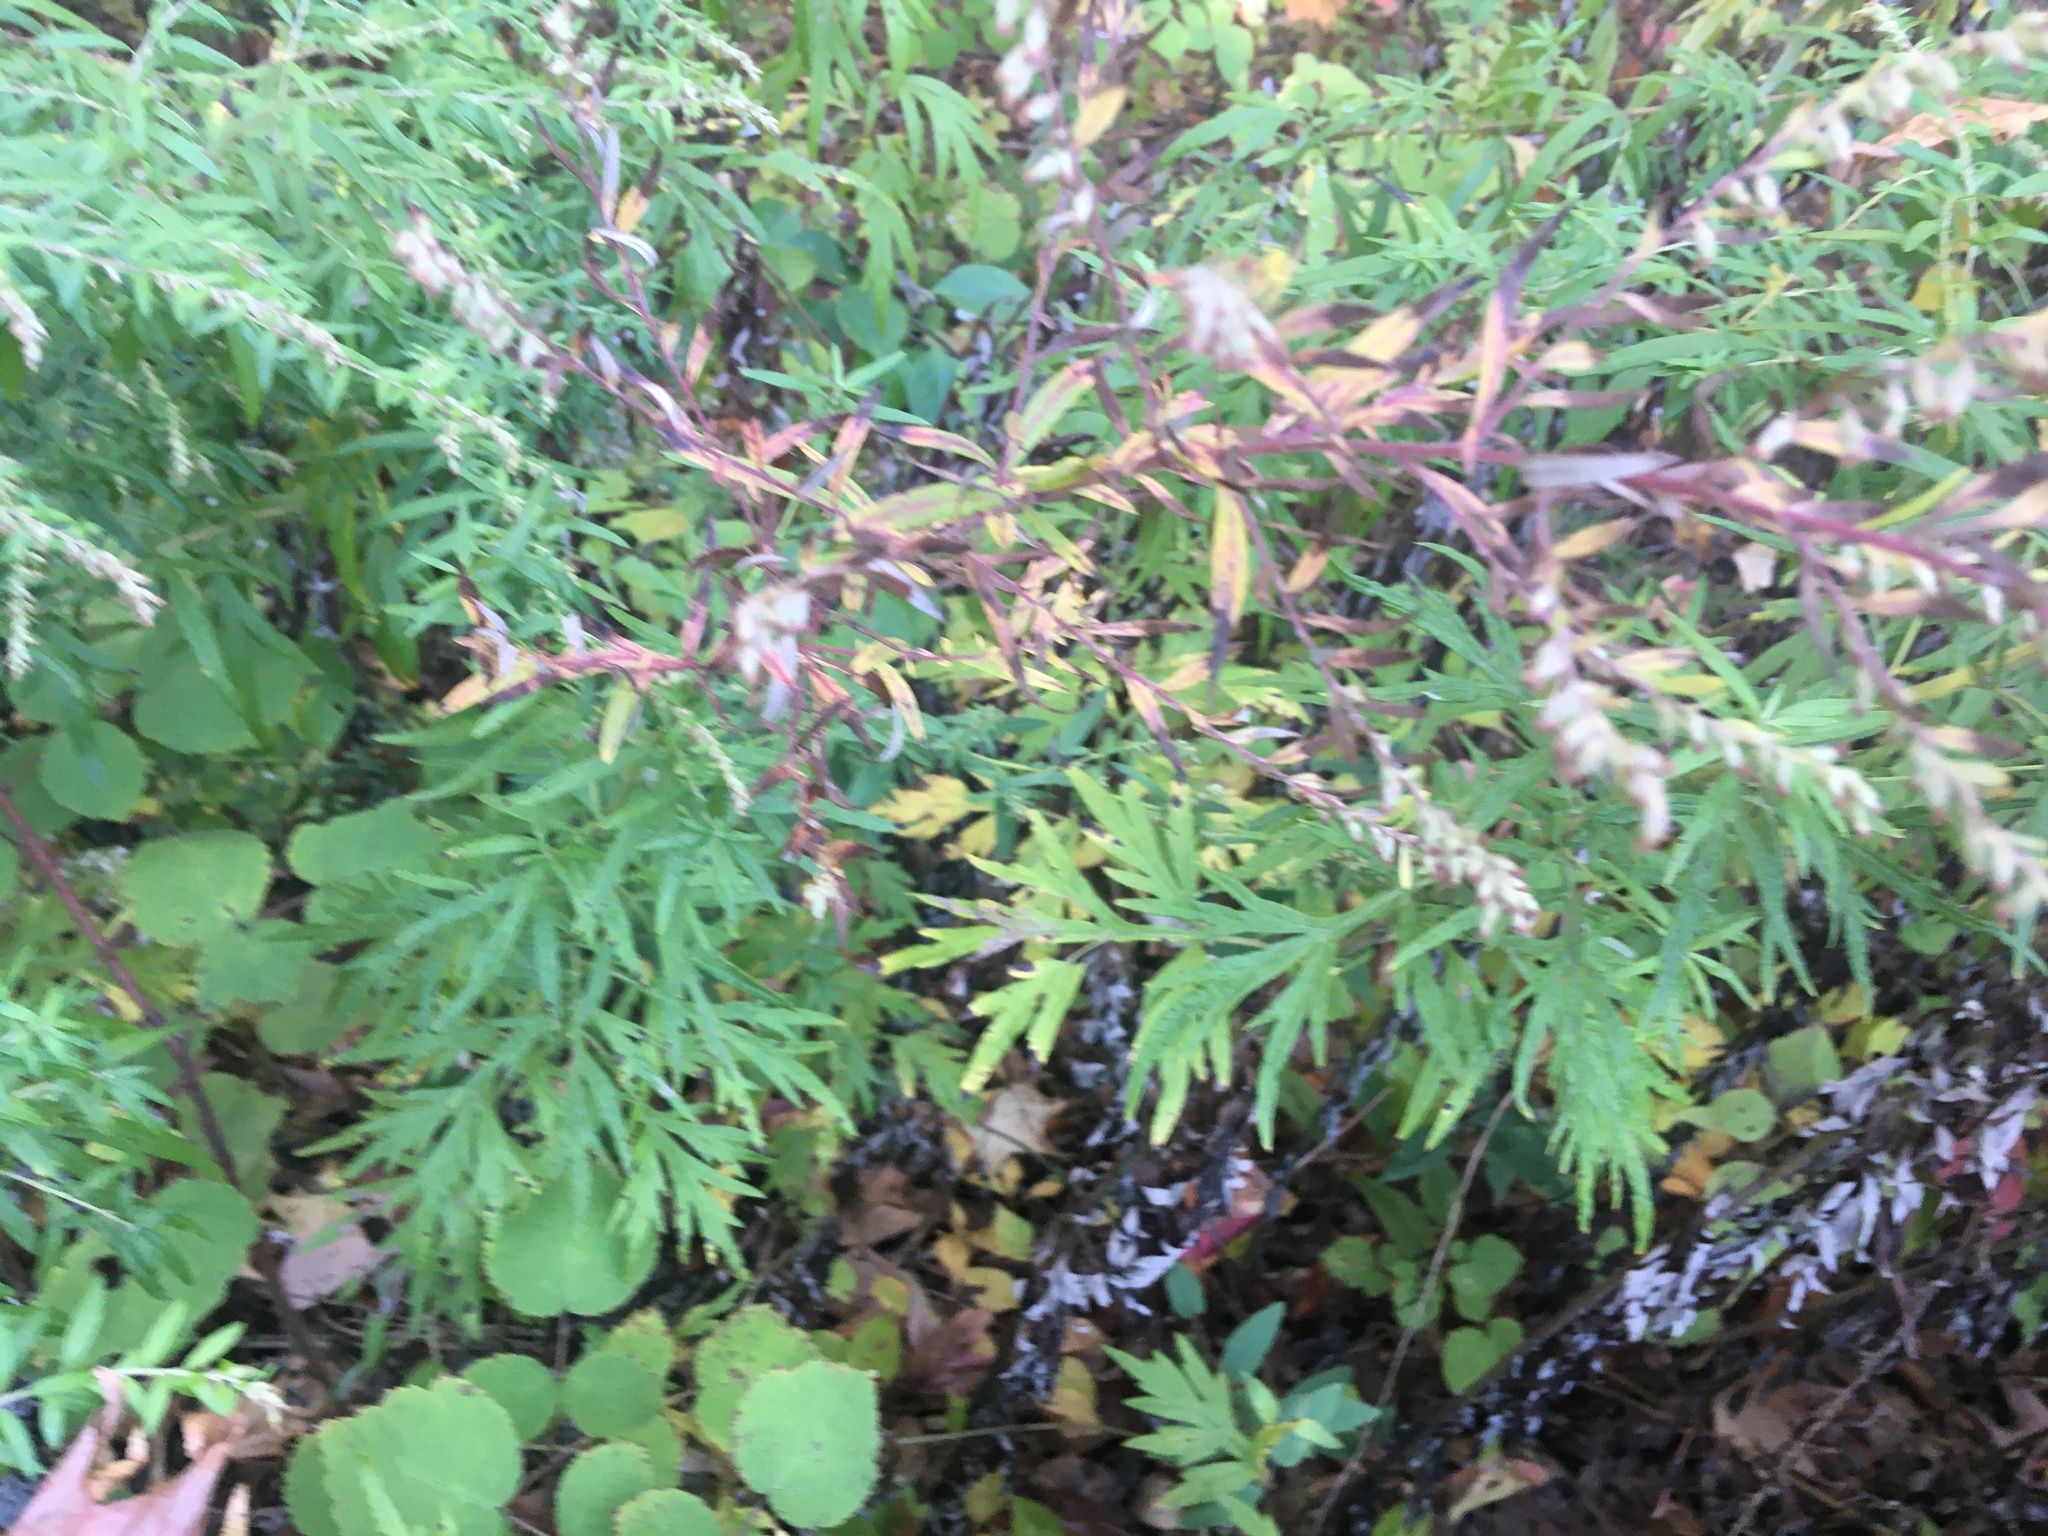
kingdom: Plantae
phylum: Tracheophyta
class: Magnoliopsida
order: Asterales
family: Asteraceae
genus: Artemisia
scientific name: Artemisia vulgaris
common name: Mugwort
